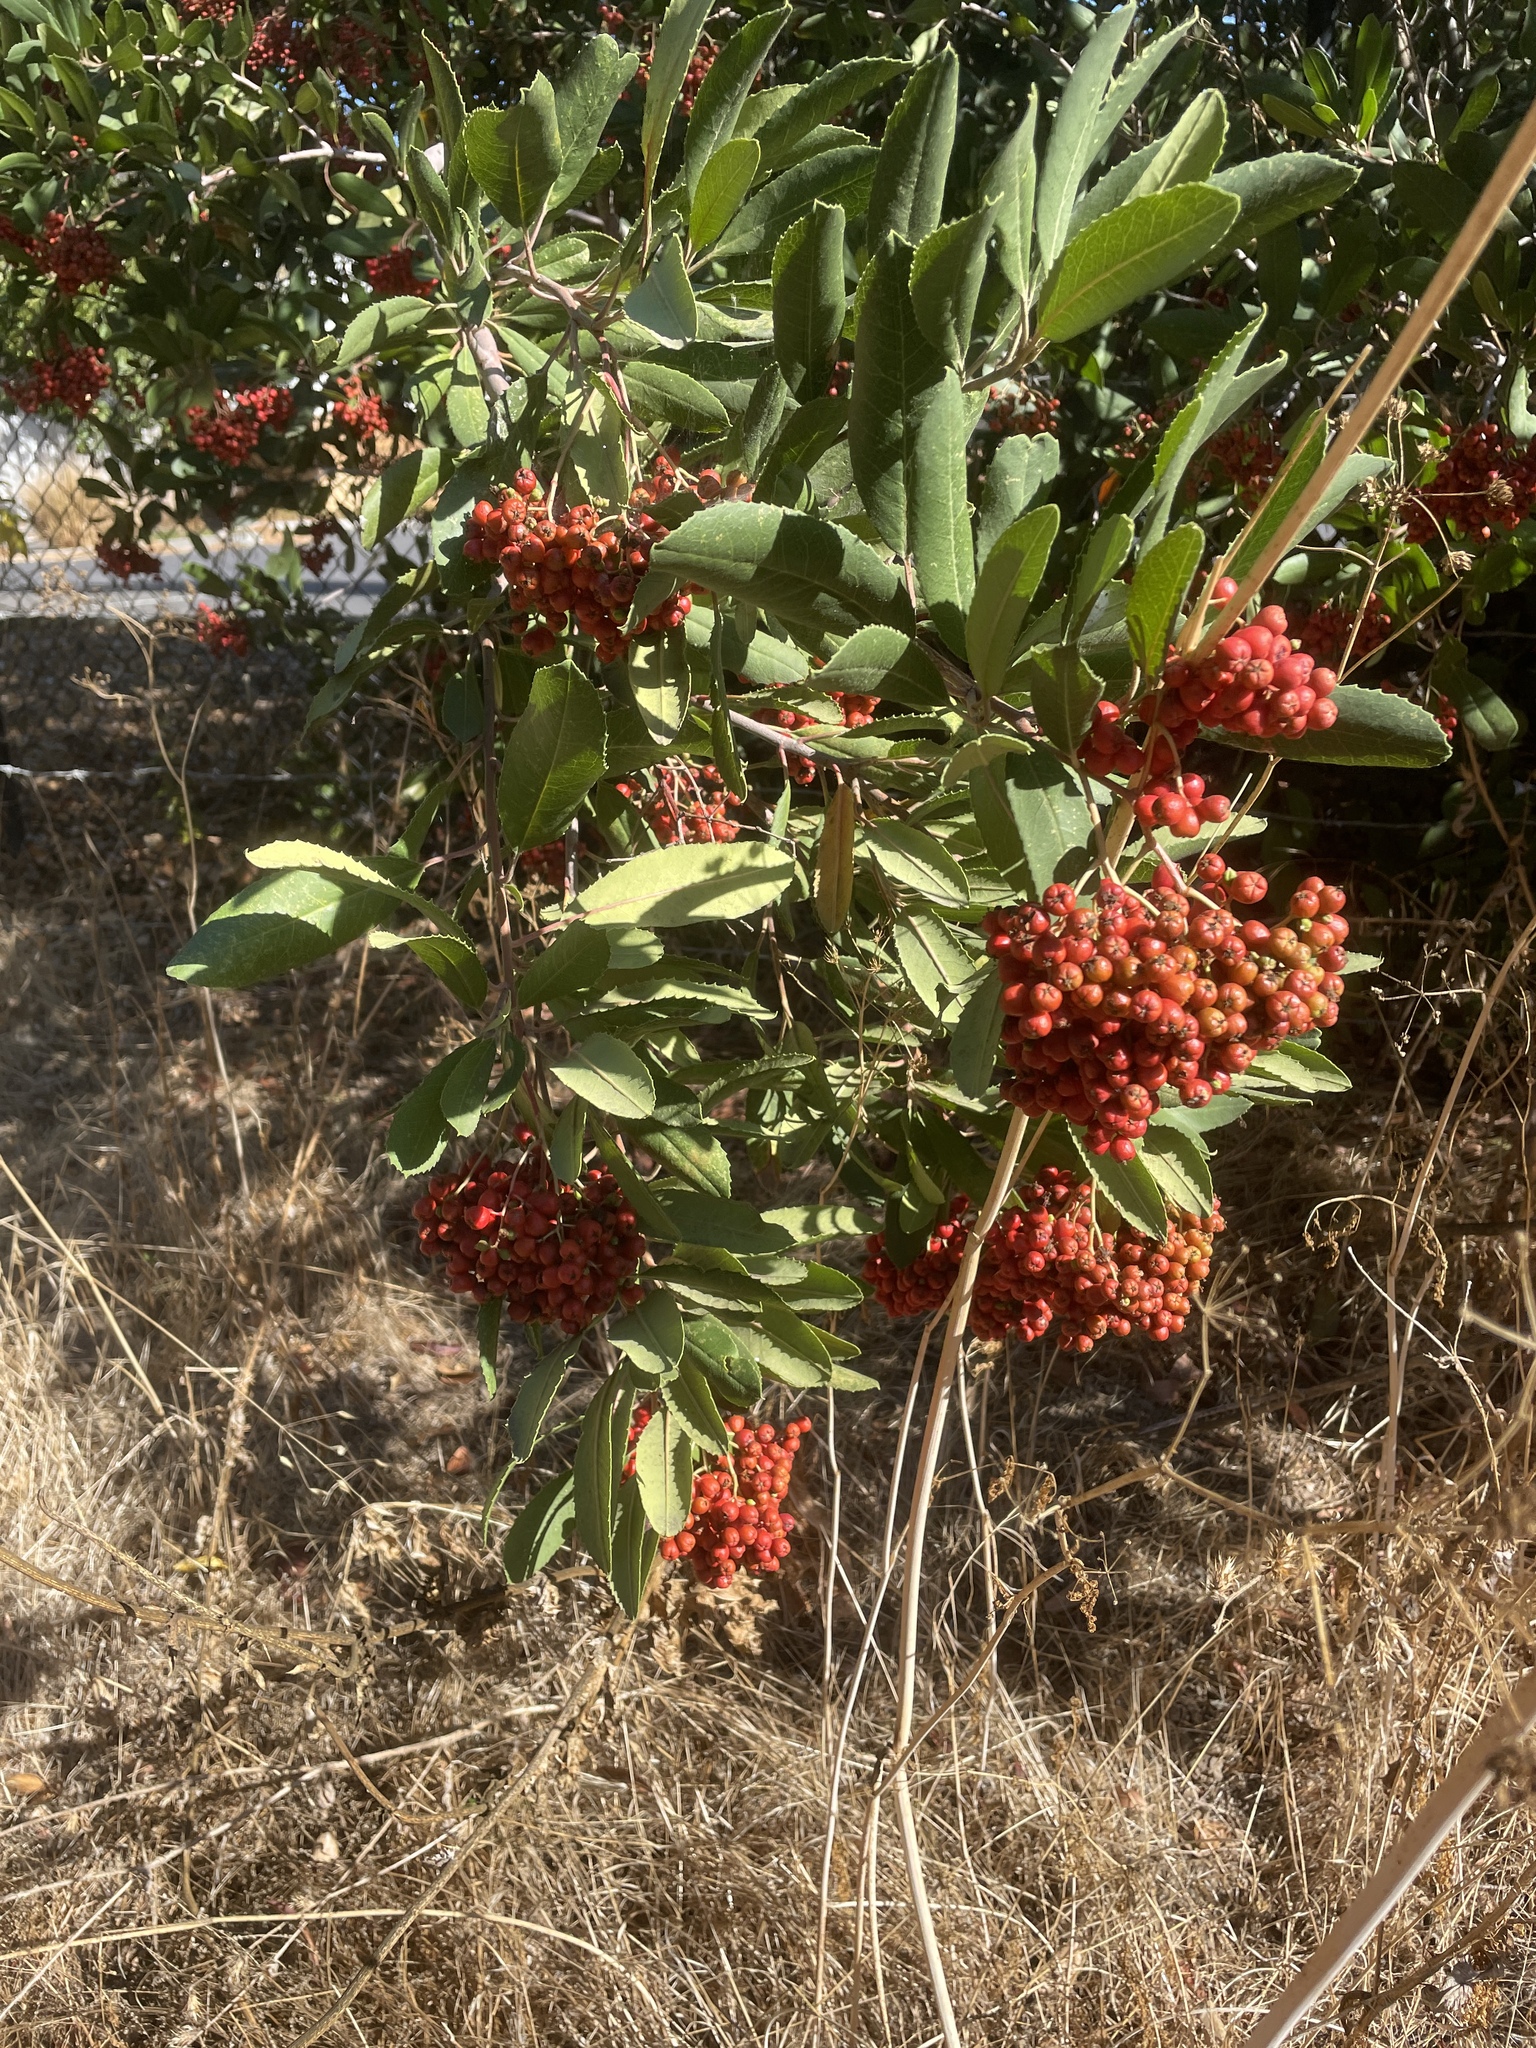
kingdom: Plantae
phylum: Tracheophyta
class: Magnoliopsida
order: Rosales
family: Rosaceae
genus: Heteromeles
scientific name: Heteromeles arbutifolia
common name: California-holly
